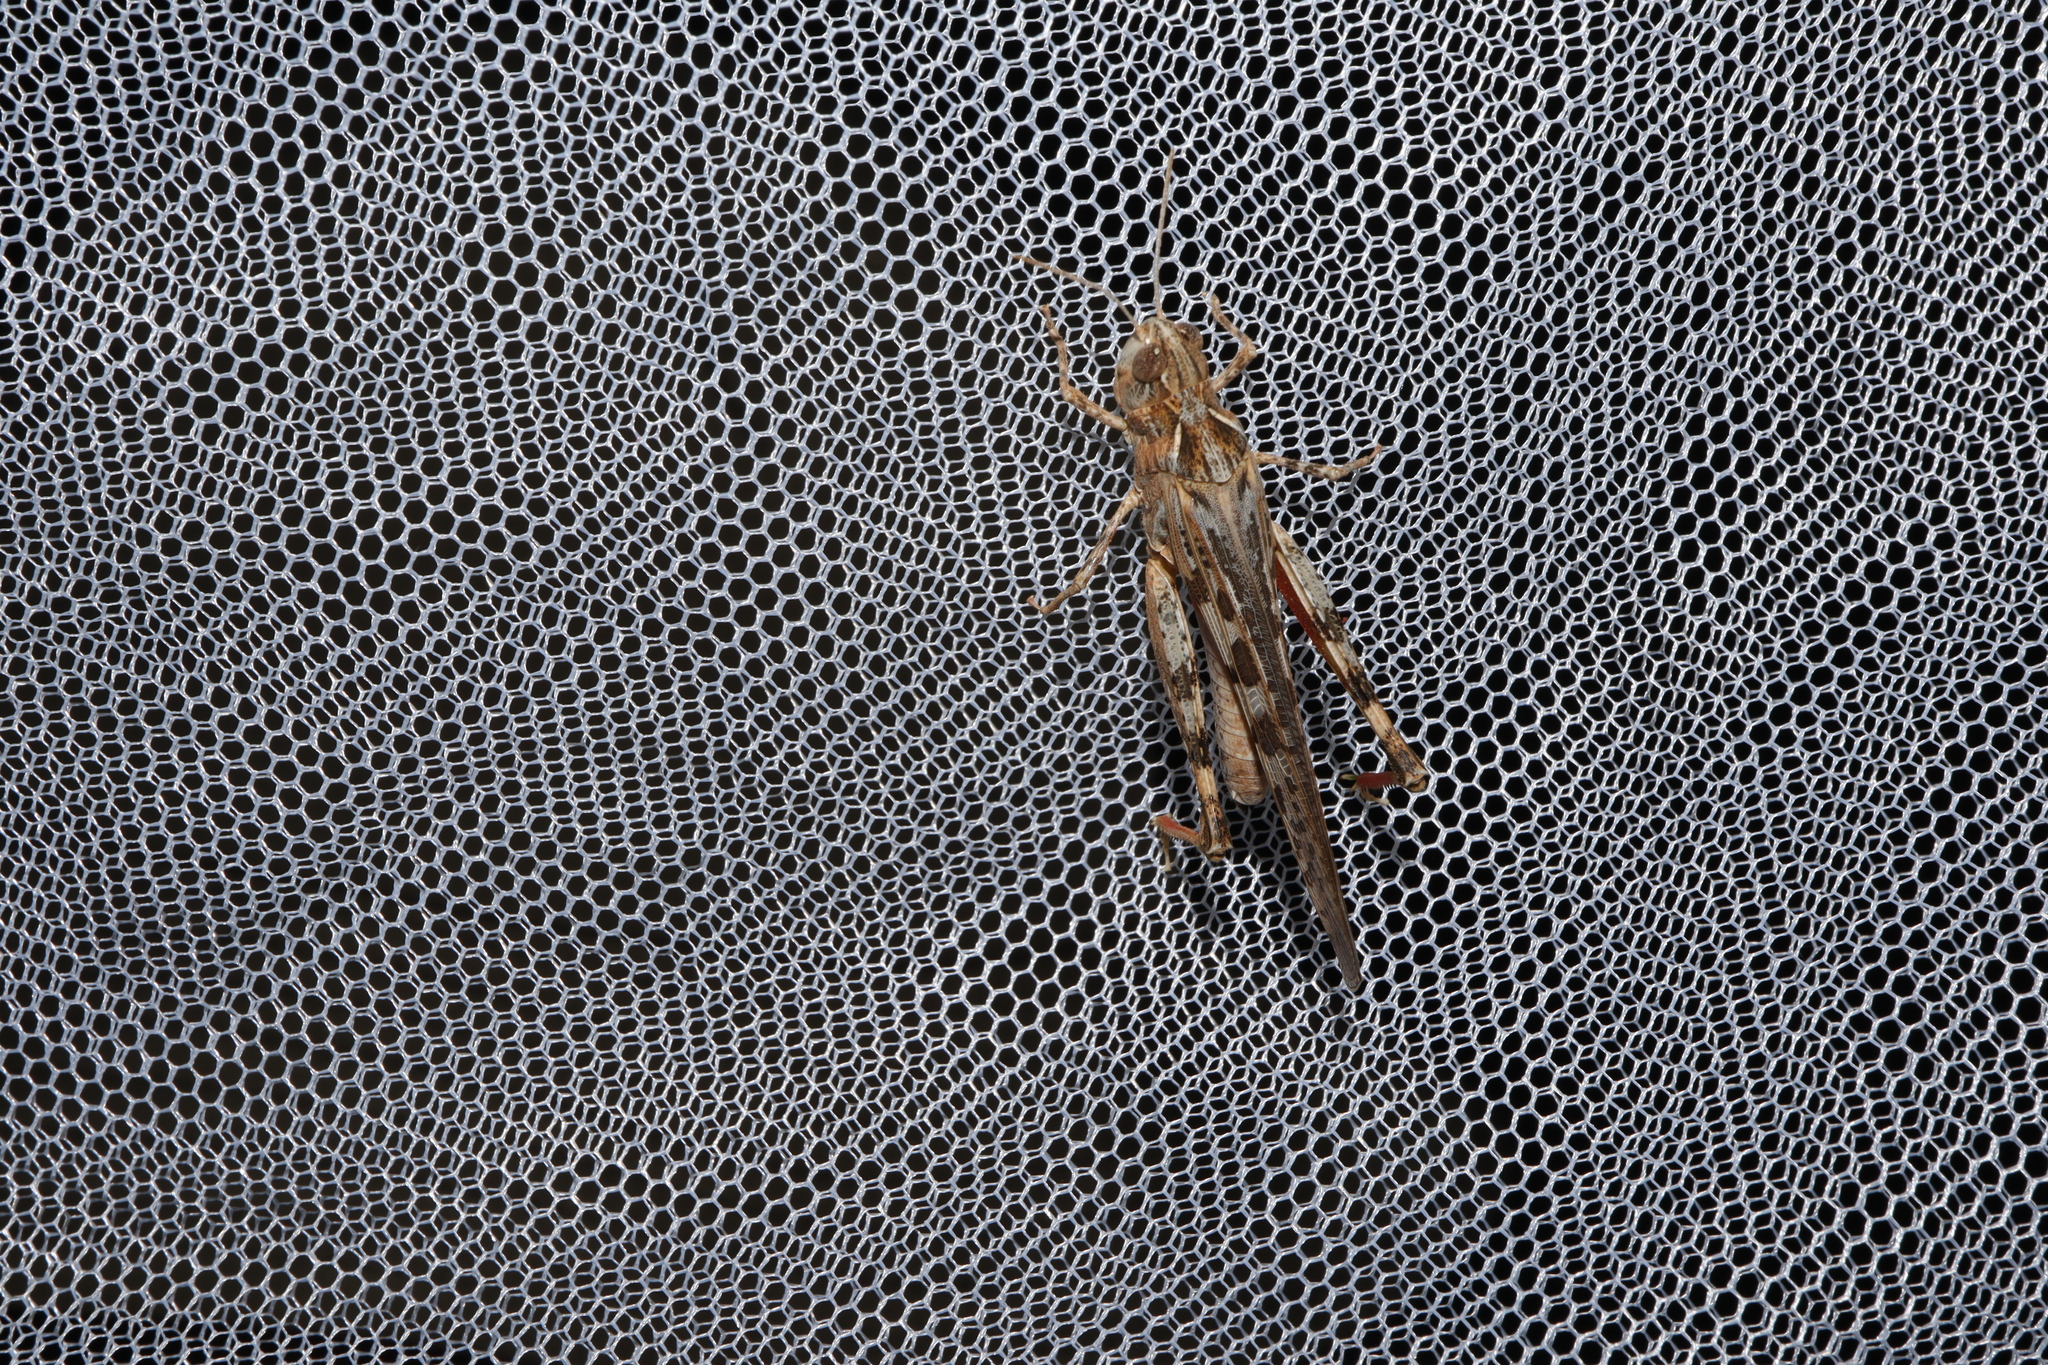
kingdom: Animalia
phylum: Arthropoda
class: Insecta
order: Orthoptera
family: Acrididae
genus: Chortoicetes
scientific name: Chortoicetes terminifera
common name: Australian plague locust
